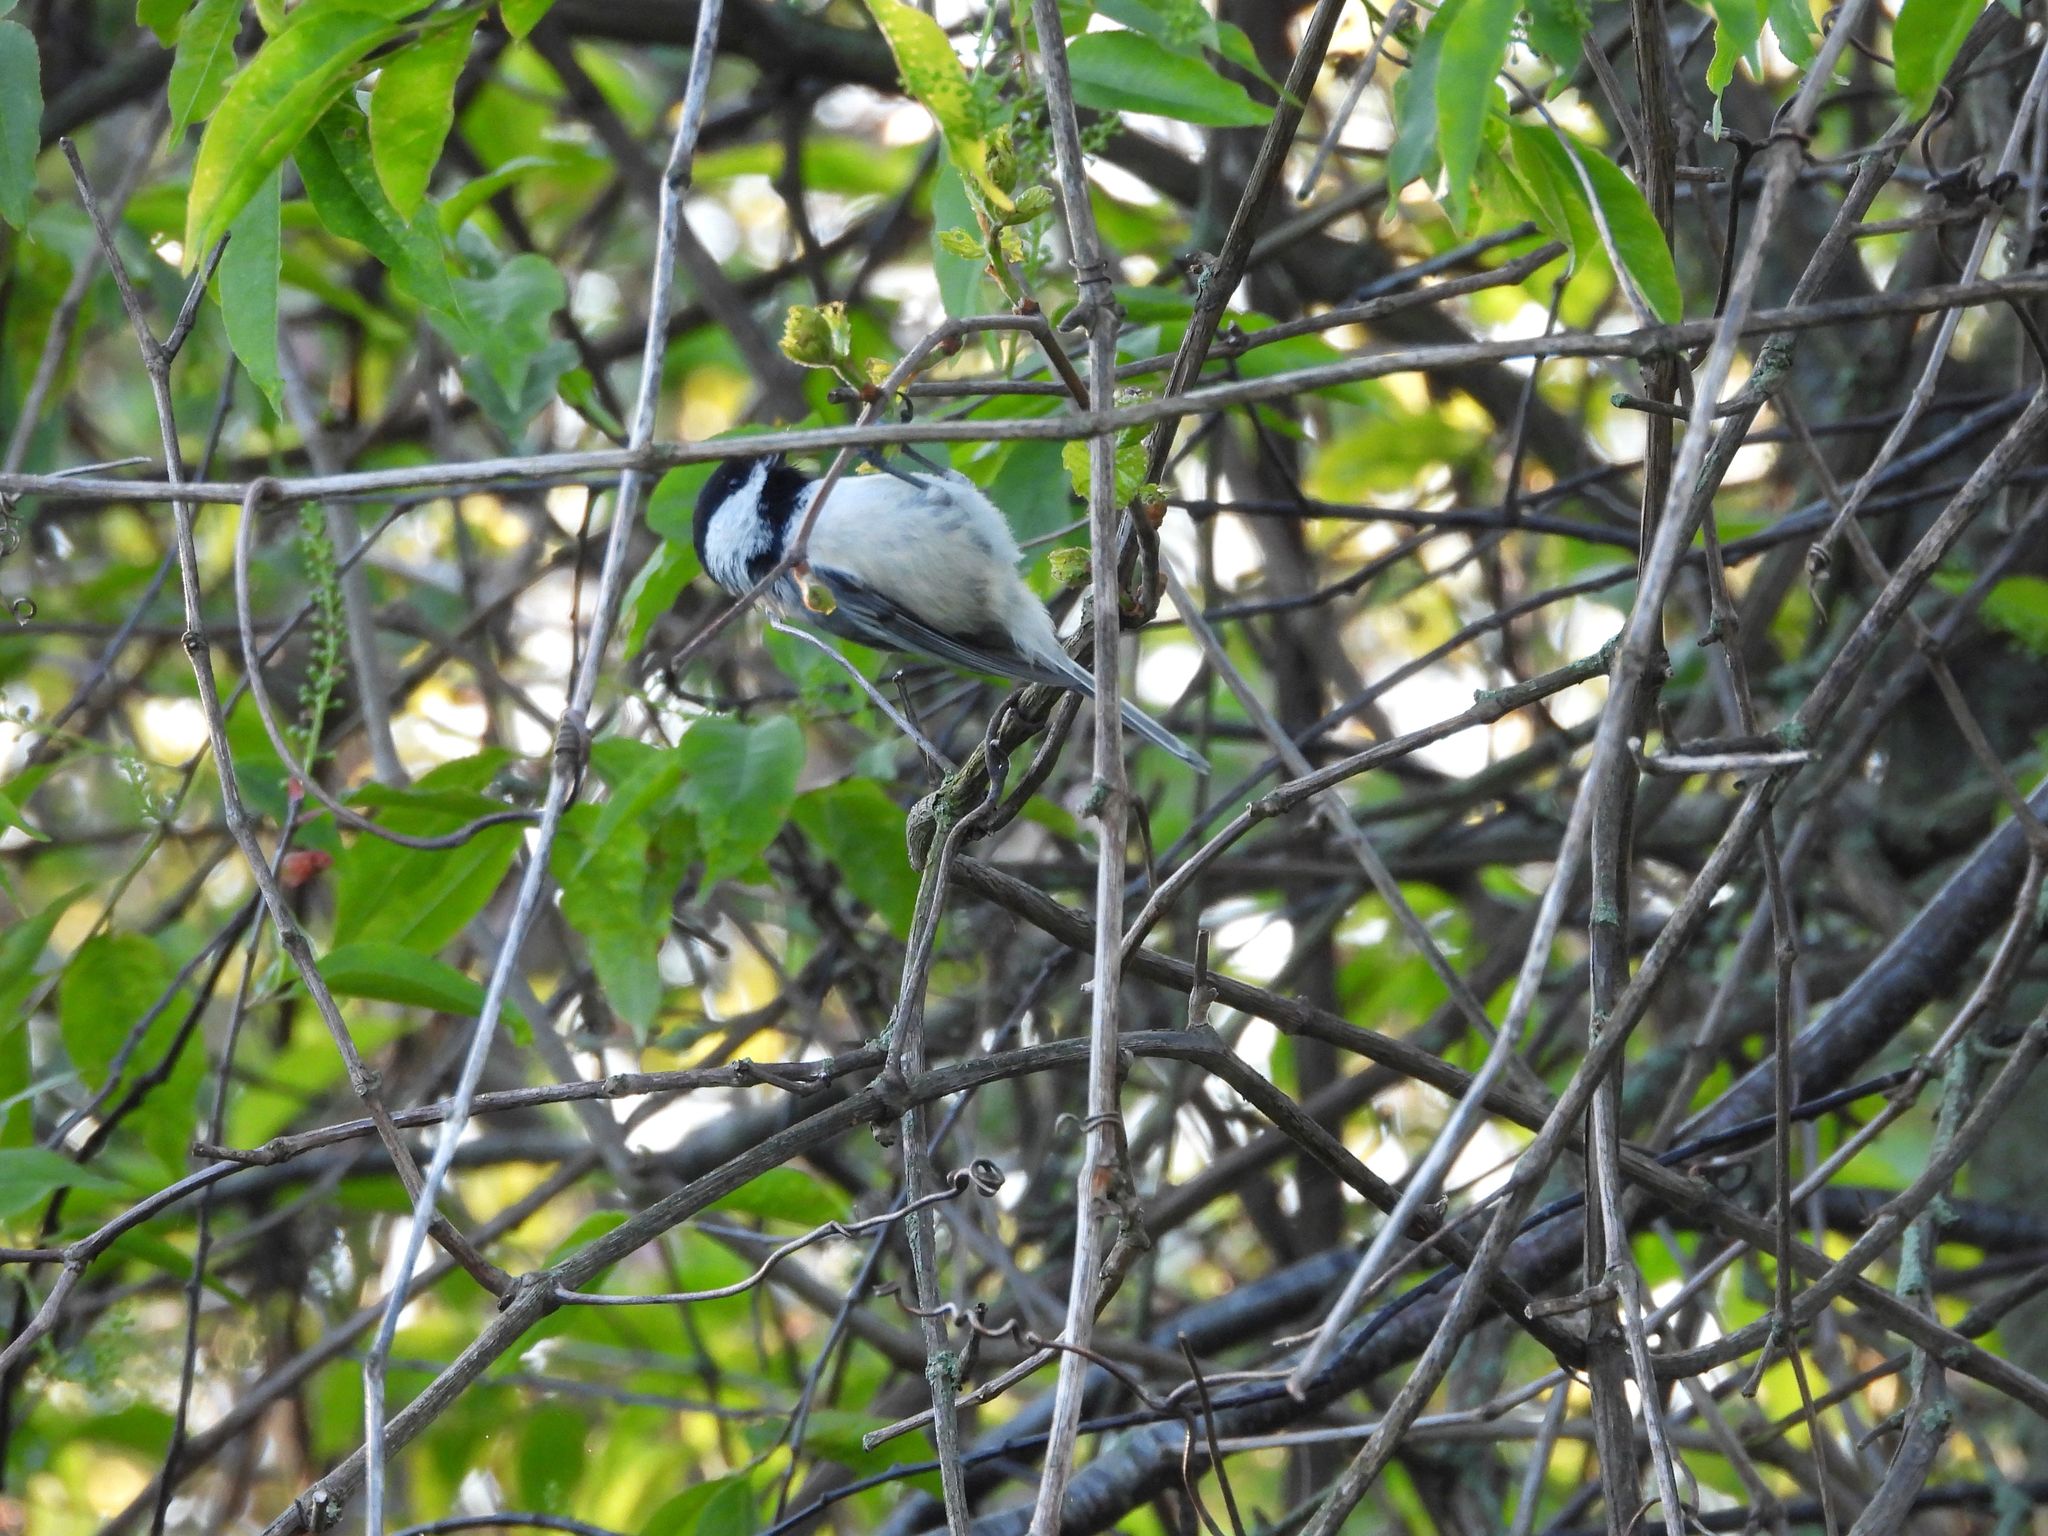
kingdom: Animalia
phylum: Chordata
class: Aves
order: Passeriformes
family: Paridae
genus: Poecile
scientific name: Poecile atricapillus
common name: Black-capped chickadee
